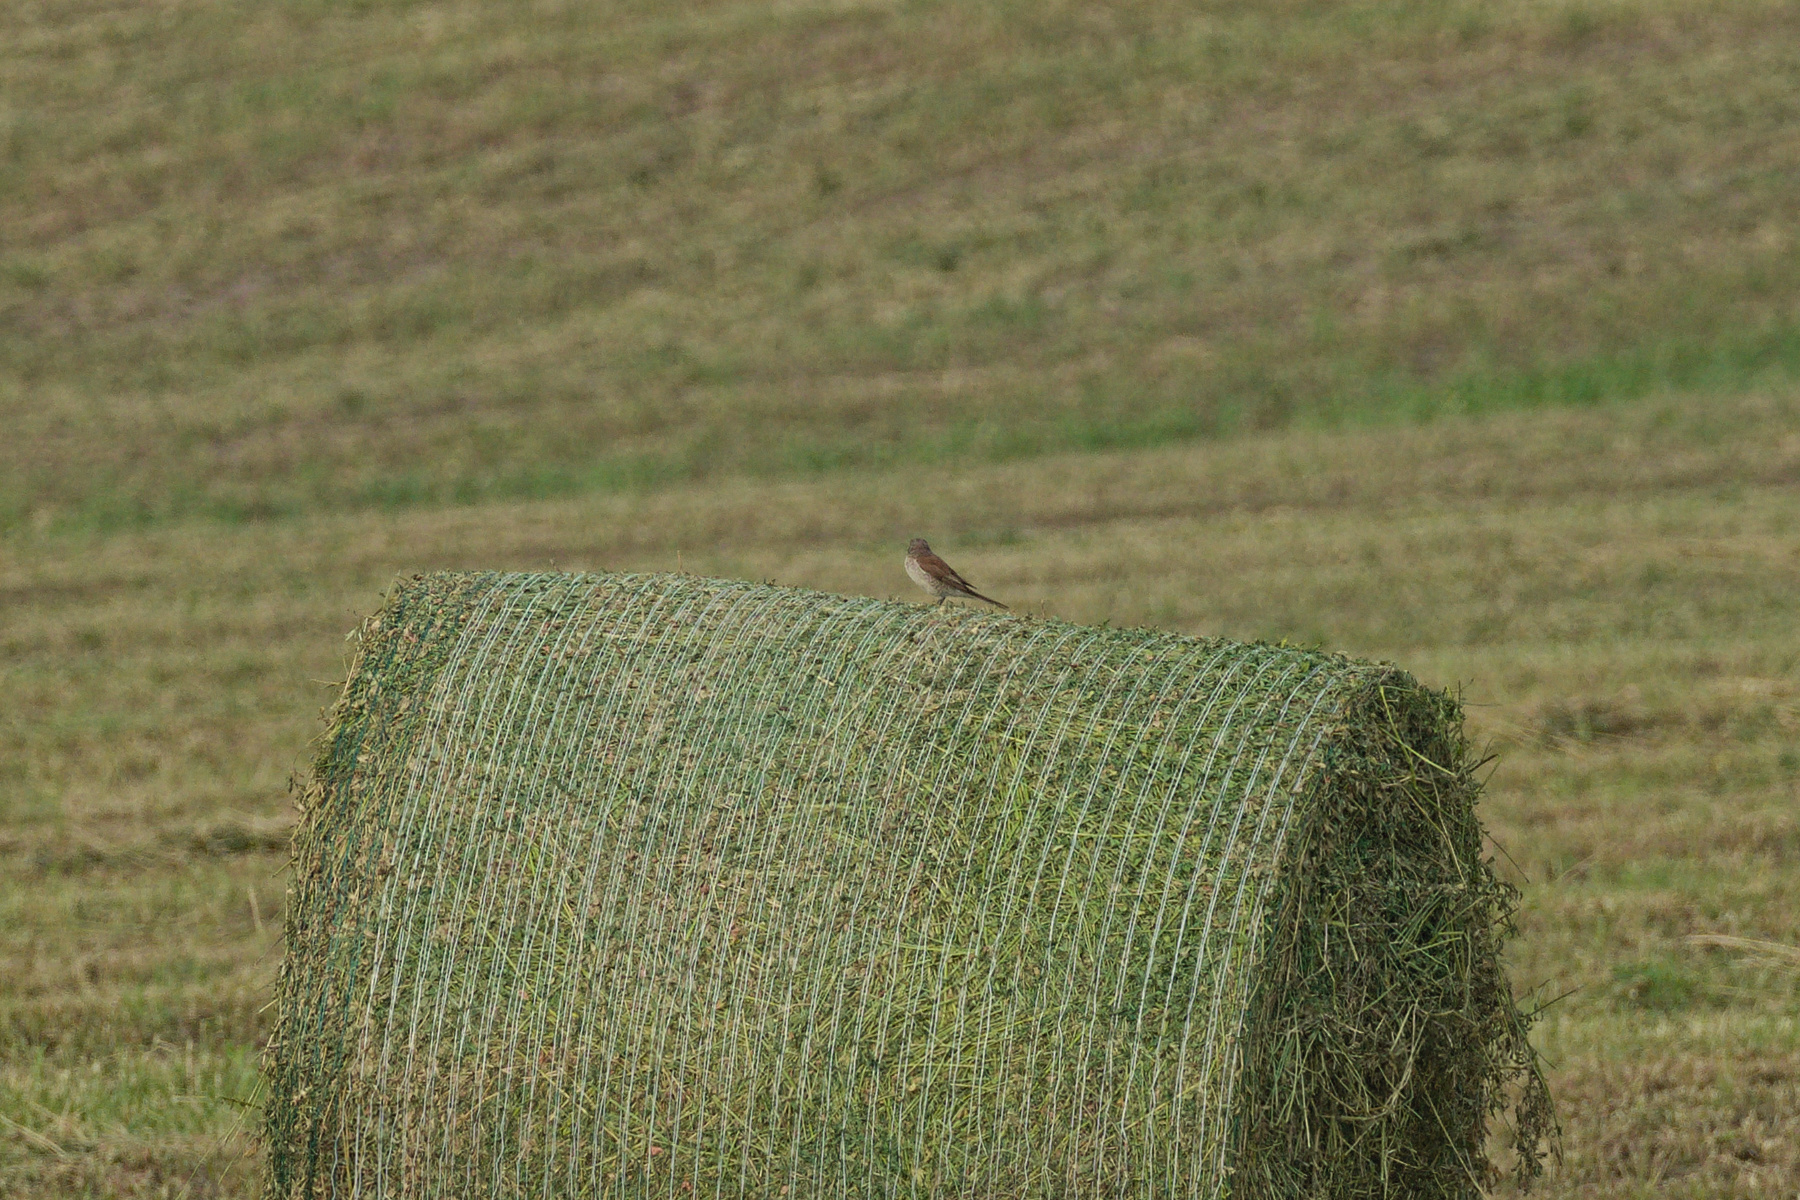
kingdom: Animalia
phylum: Chordata
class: Aves
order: Passeriformes
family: Laniidae
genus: Lanius
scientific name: Lanius collurio
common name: Red-backed shrike
